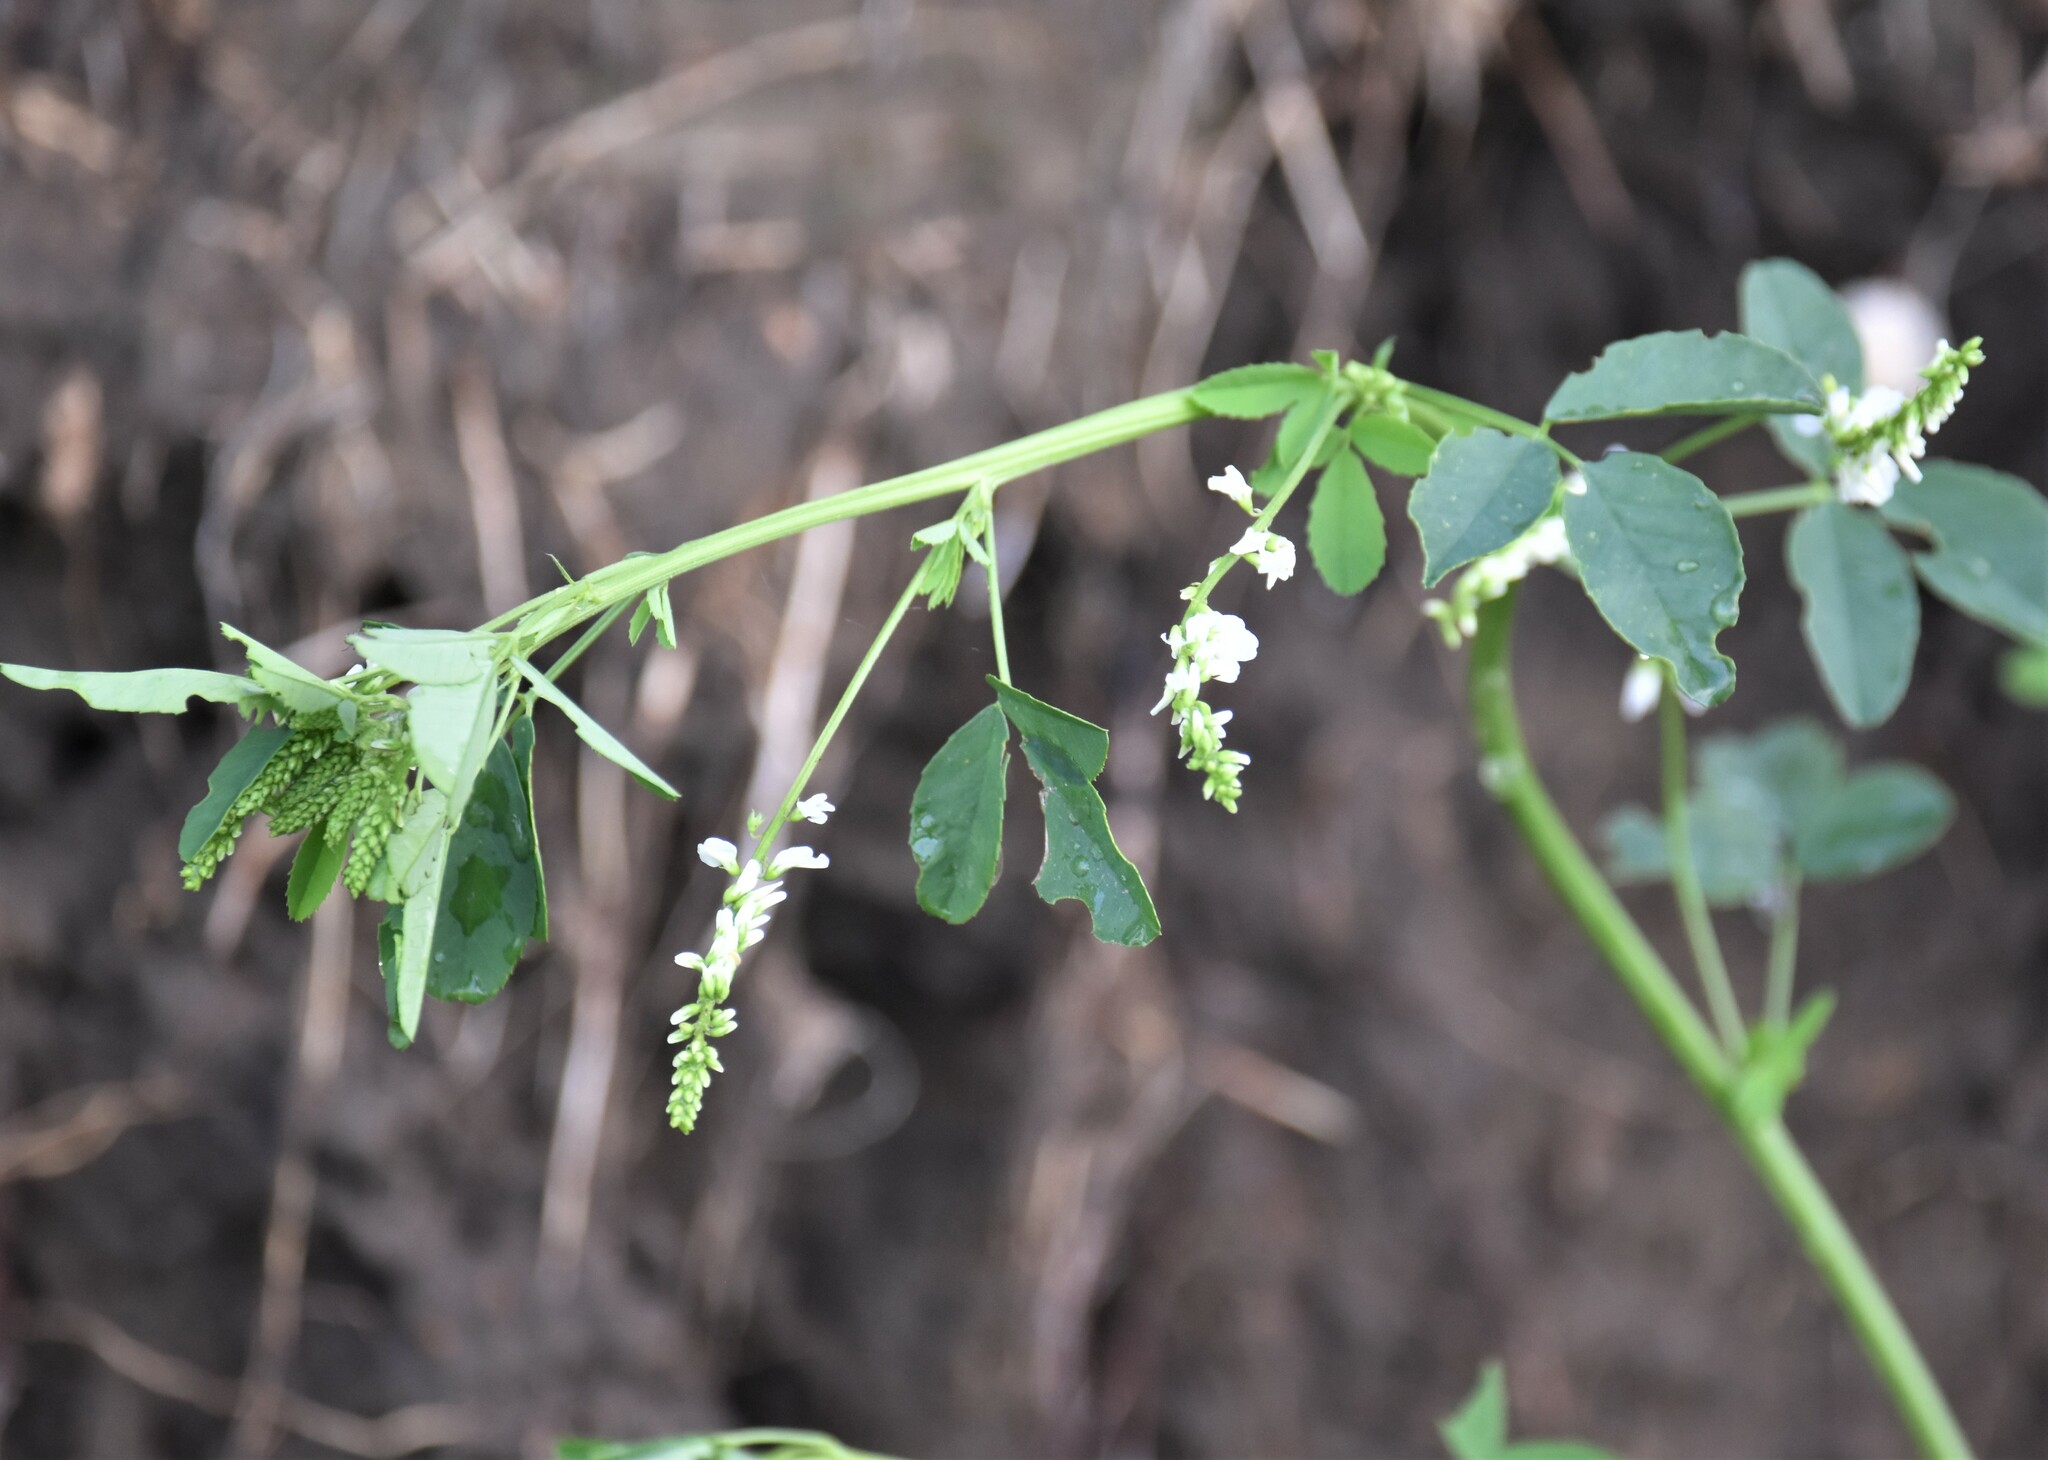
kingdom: Plantae
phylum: Tracheophyta
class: Magnoliopsida
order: Fabales
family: Fabaceae
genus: Melilotus
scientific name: Melilotus albus
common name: White melilot
